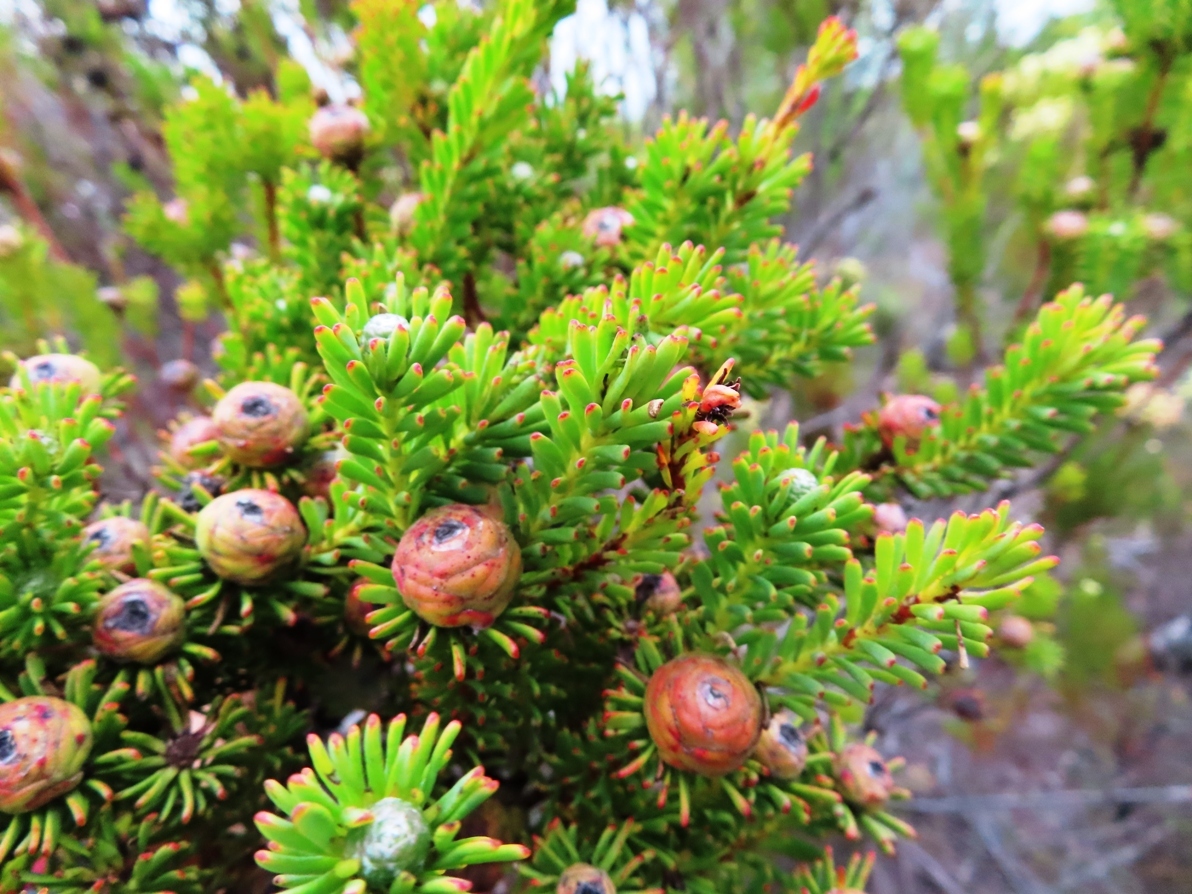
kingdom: Plantae
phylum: Tracheophyta
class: Magnoliopsida
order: Proteales
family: Proteaceae
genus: Leucadendron
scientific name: Leucadendron linifolium
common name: Line-leaf conebush
